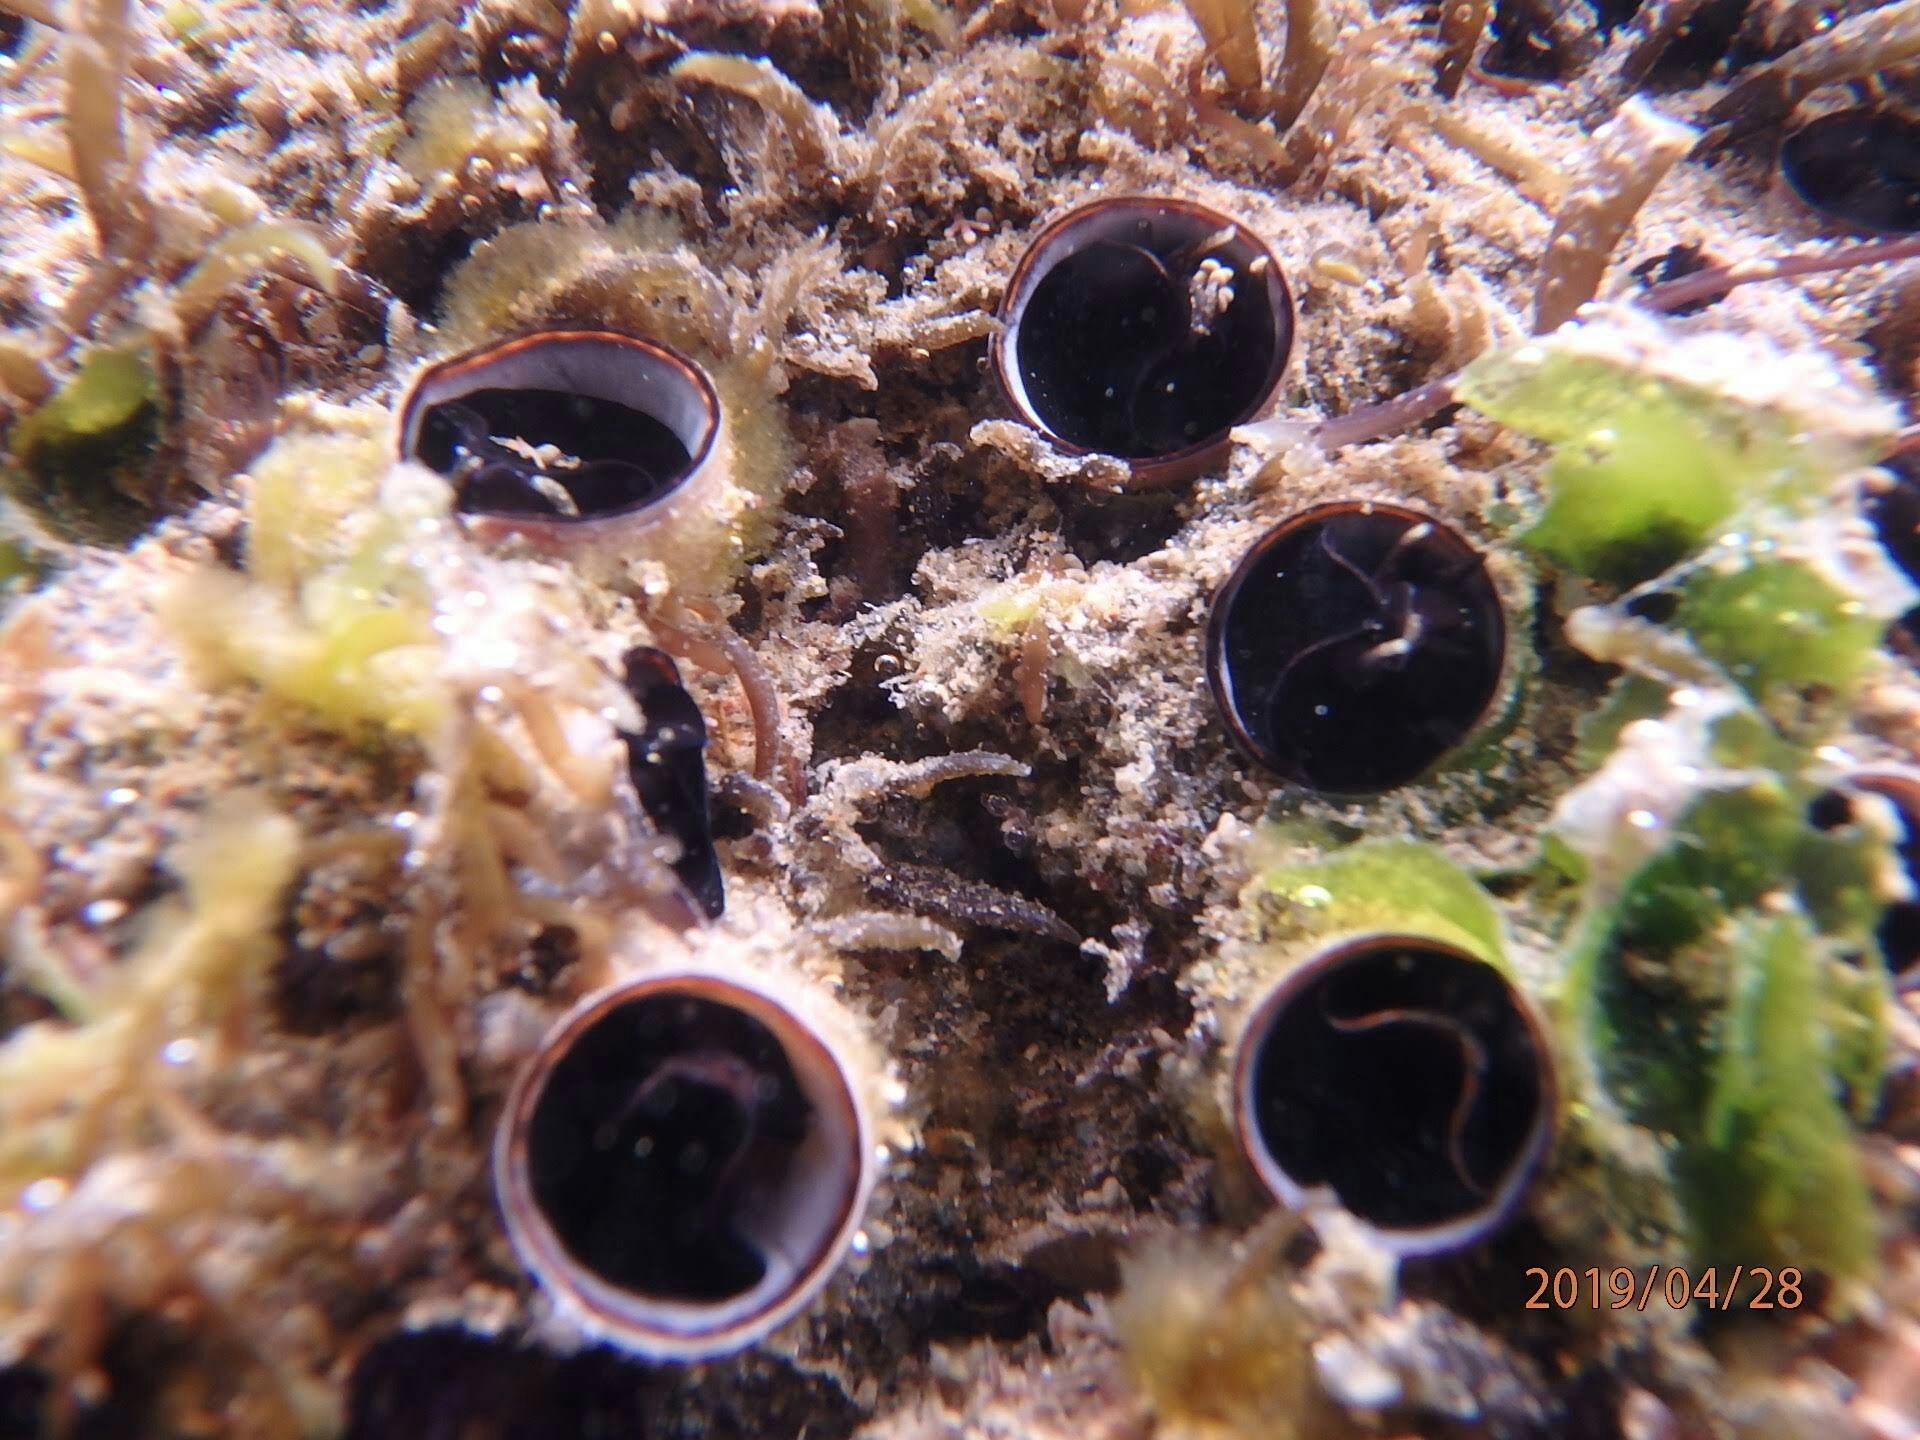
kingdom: Animalia
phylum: Mollusca
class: Gastropoda
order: Littorinimorpha
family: Vermetidae
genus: Thylacodes
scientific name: Thylacodes squamigerus
